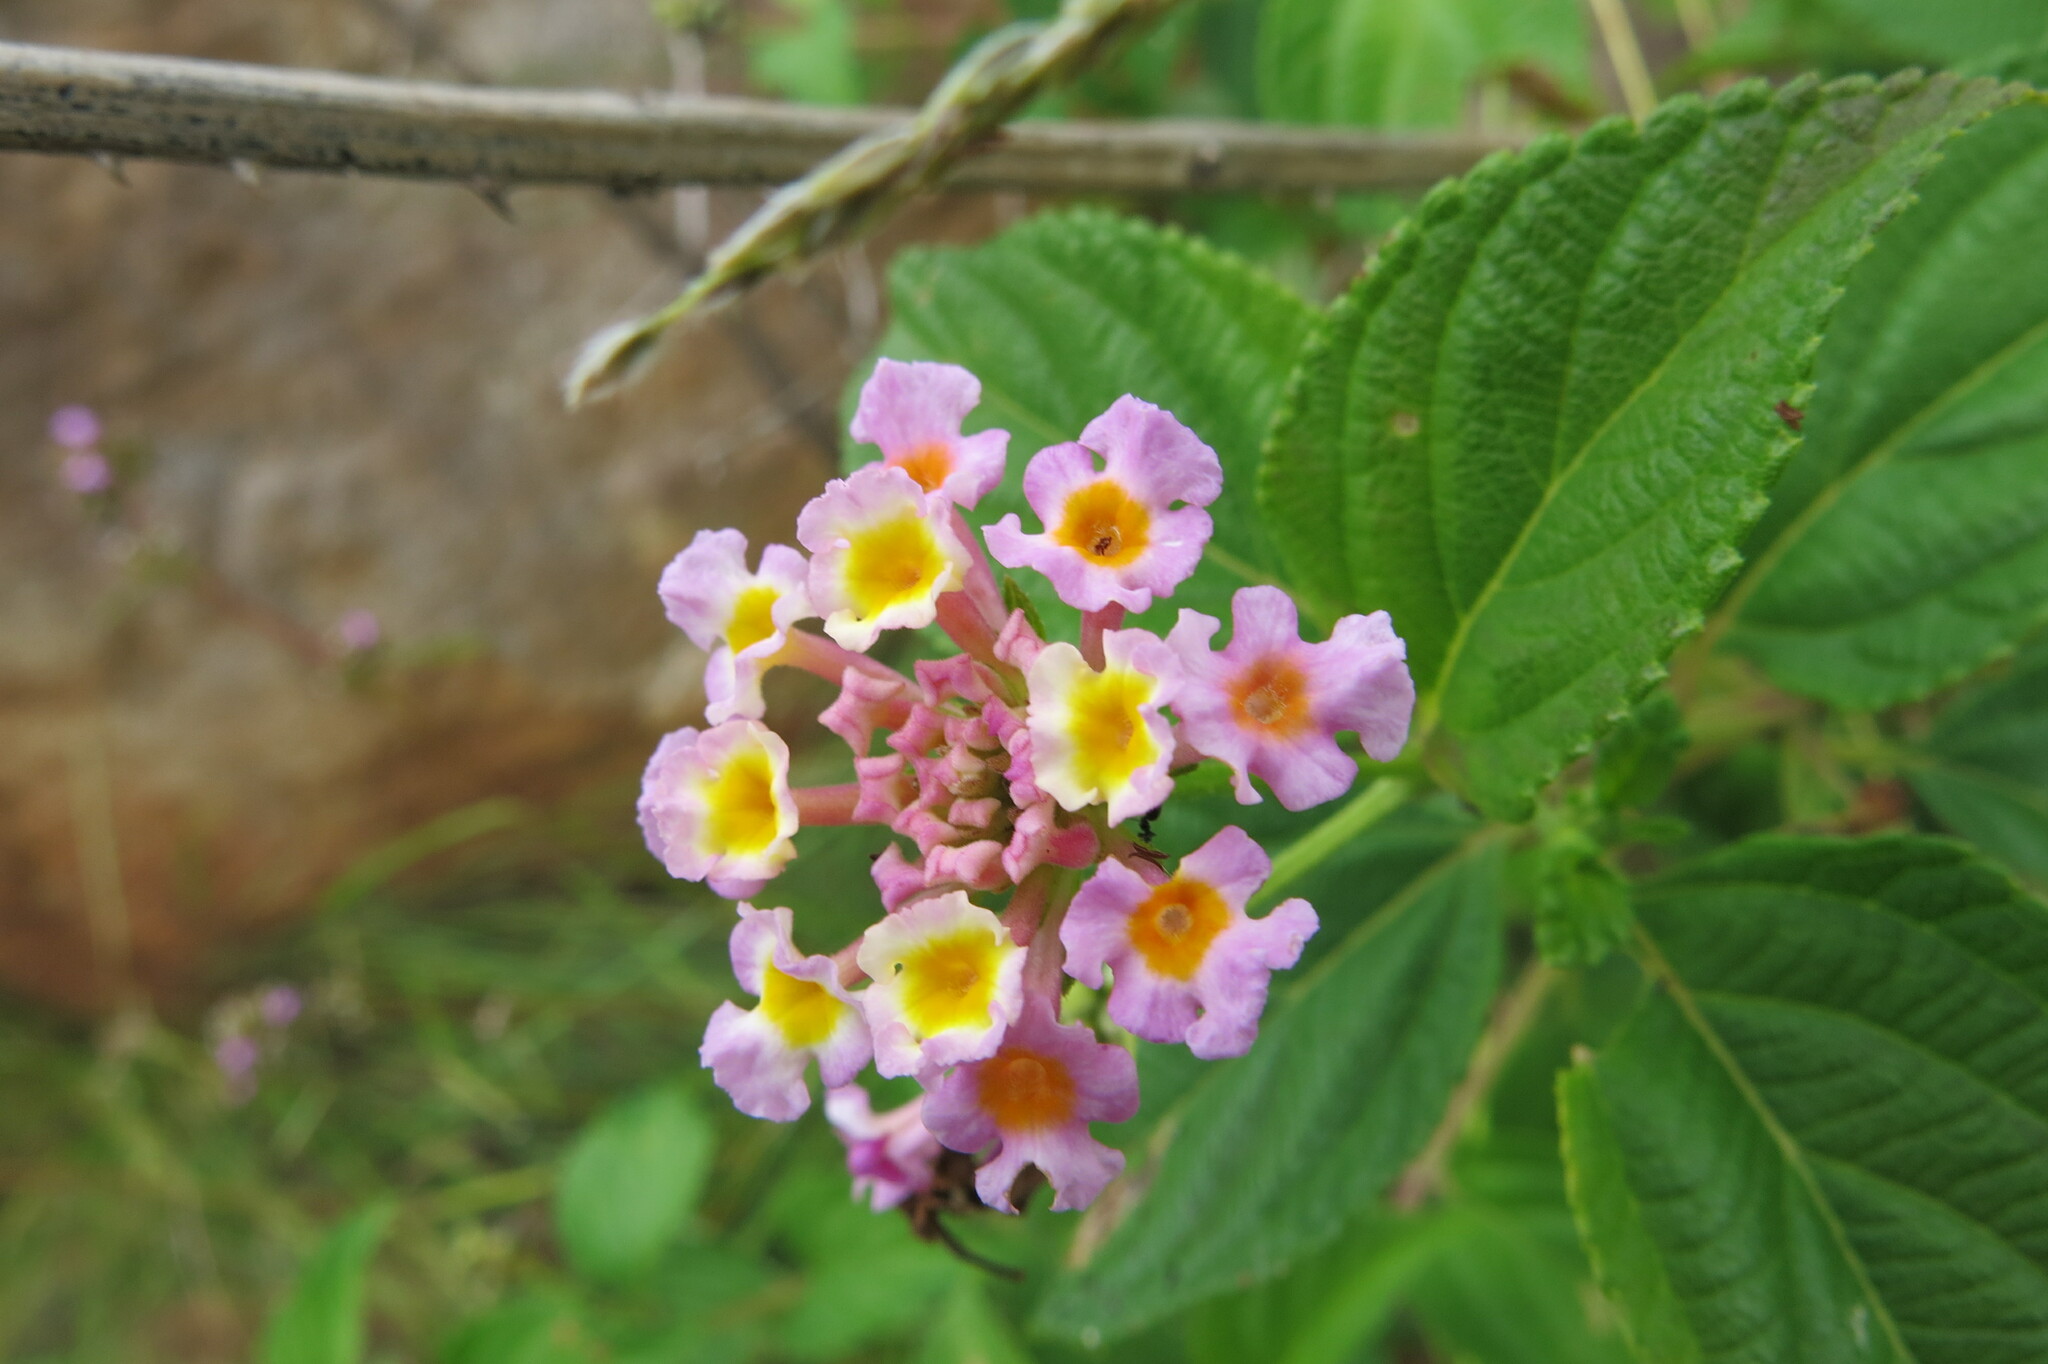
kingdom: Plantae
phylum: Tracheophyta
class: Magnoliopsida
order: Lamiales
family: Verbenaceae
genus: Lantana
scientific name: Lantana camara
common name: Lantana
